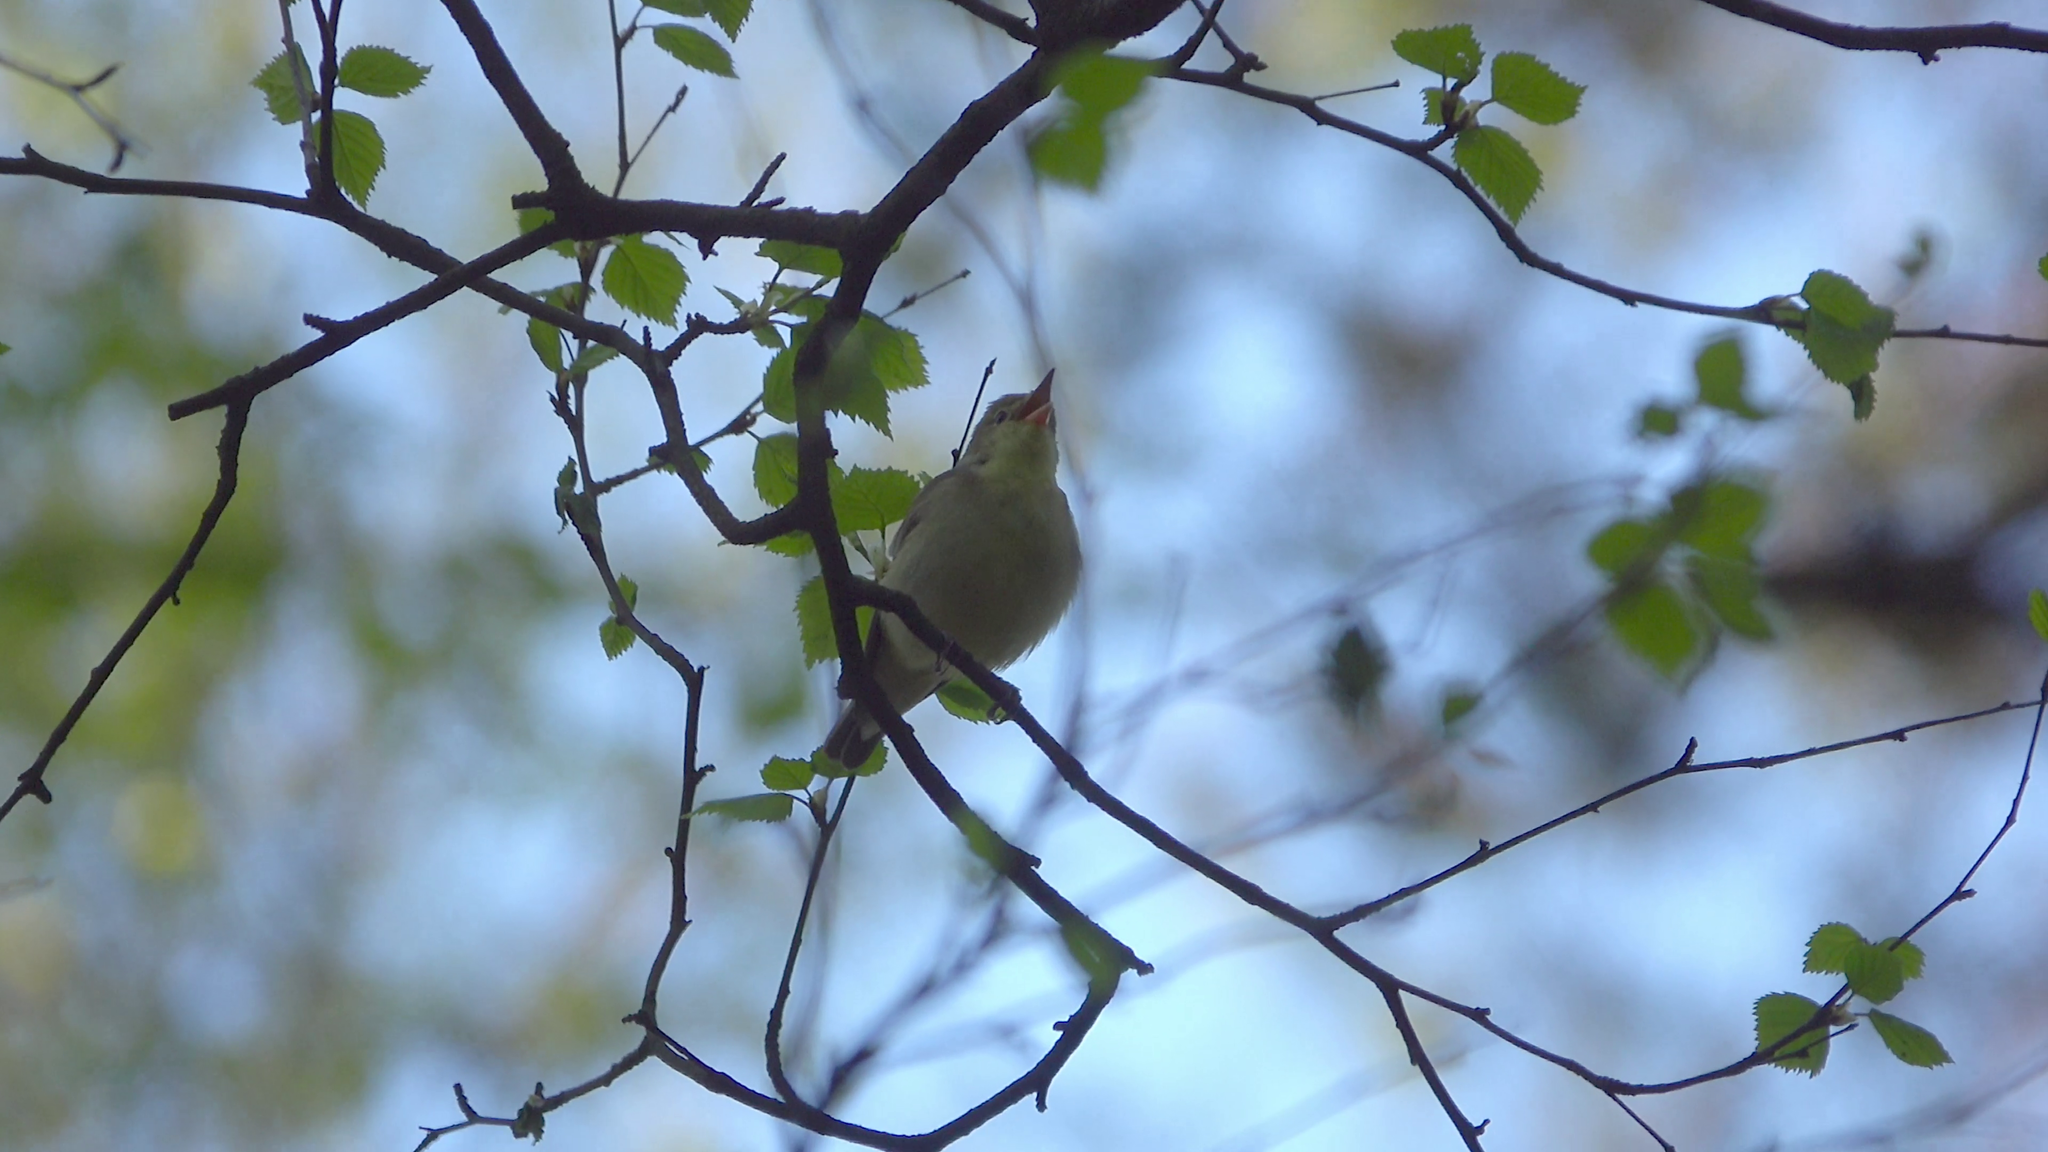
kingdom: Animalia
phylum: Chordata
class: Aves
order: Passeriformes
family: Acrocephalidae
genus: Hippolais
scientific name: Hippolais icterina
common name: Icterine warbler
